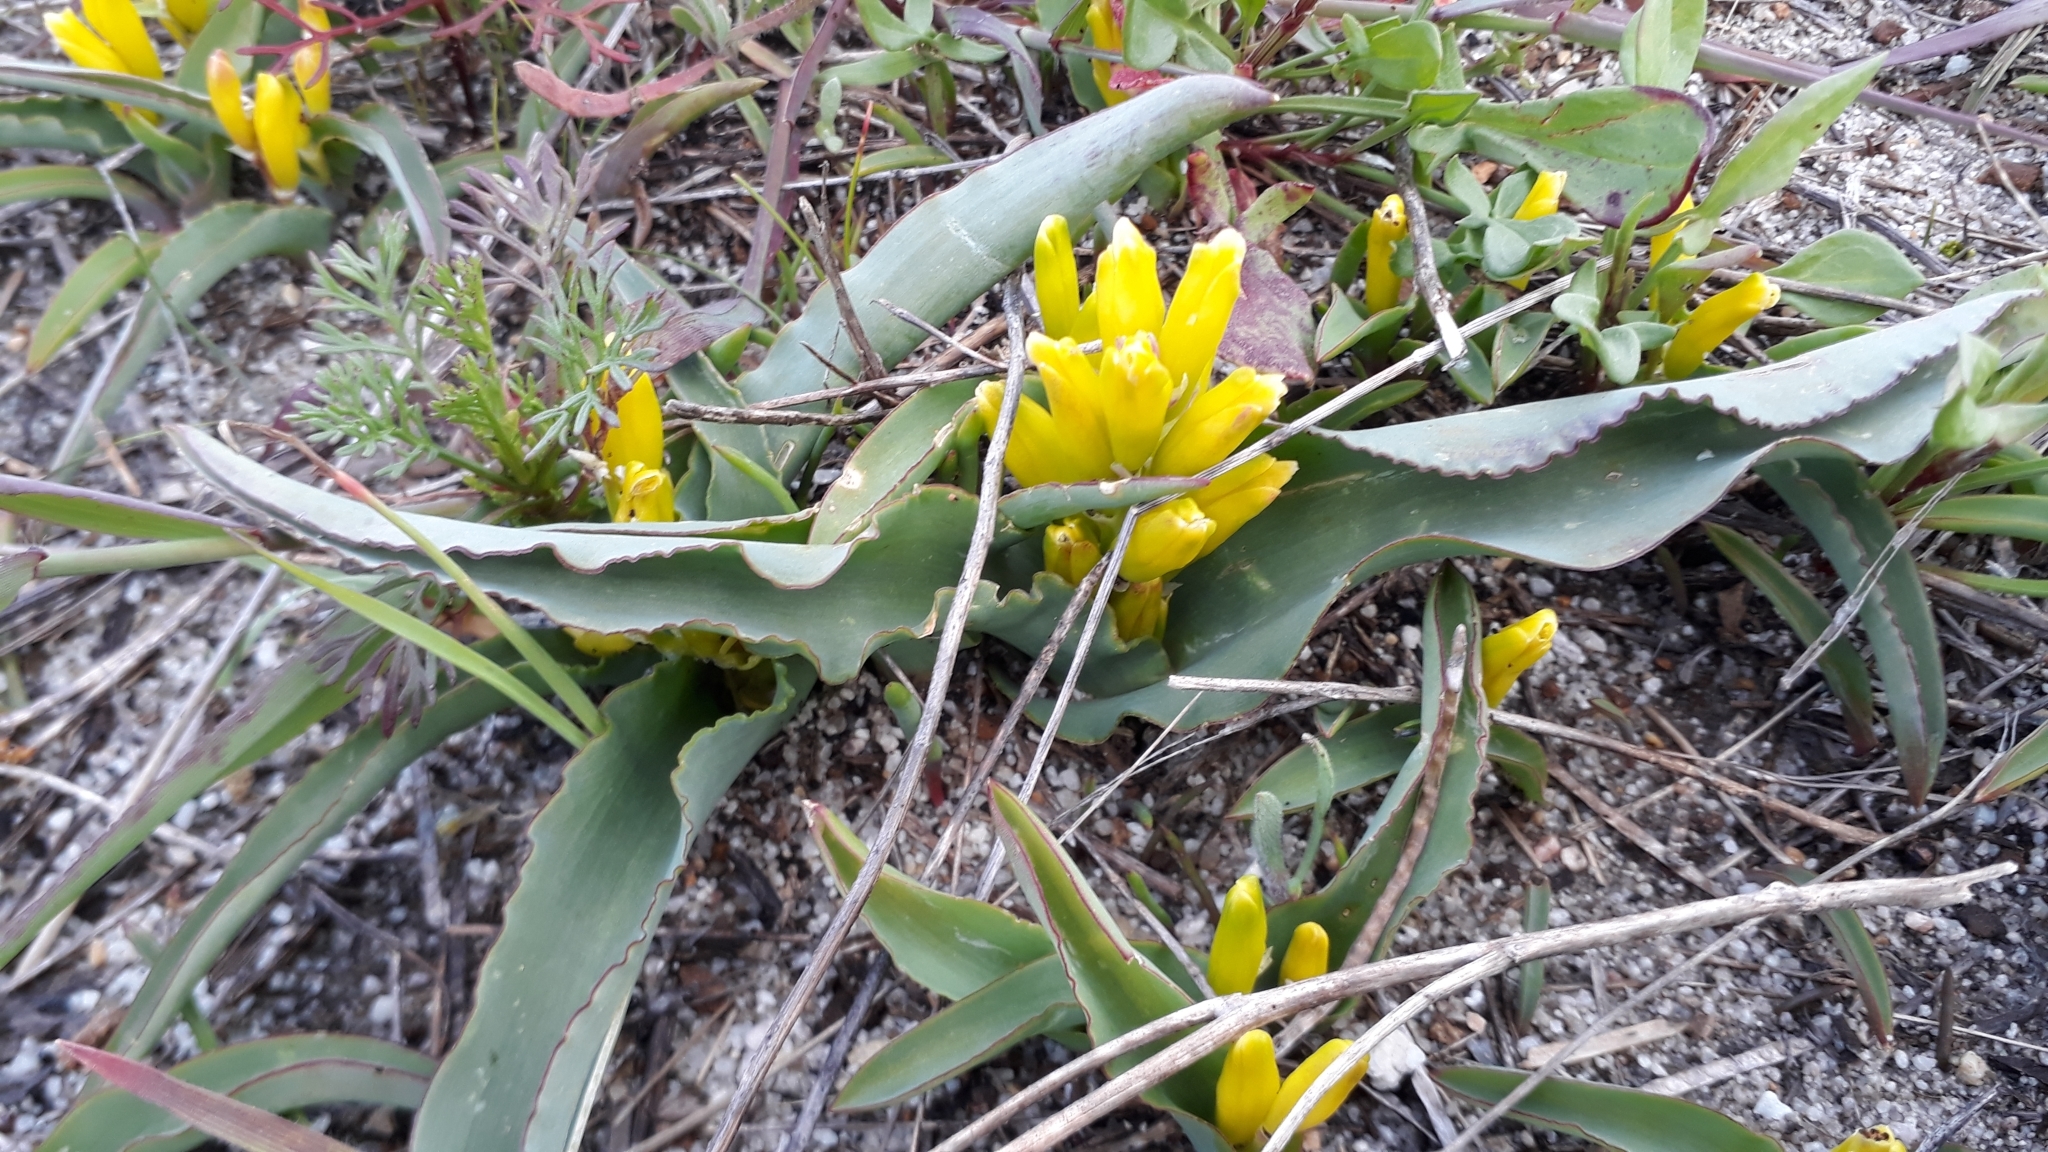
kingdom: Plantae
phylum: Tracheophyta
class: Liliopsida
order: Asparagales
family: Asparagaceae
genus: Lachenalia
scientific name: Lachenalia reflexa
